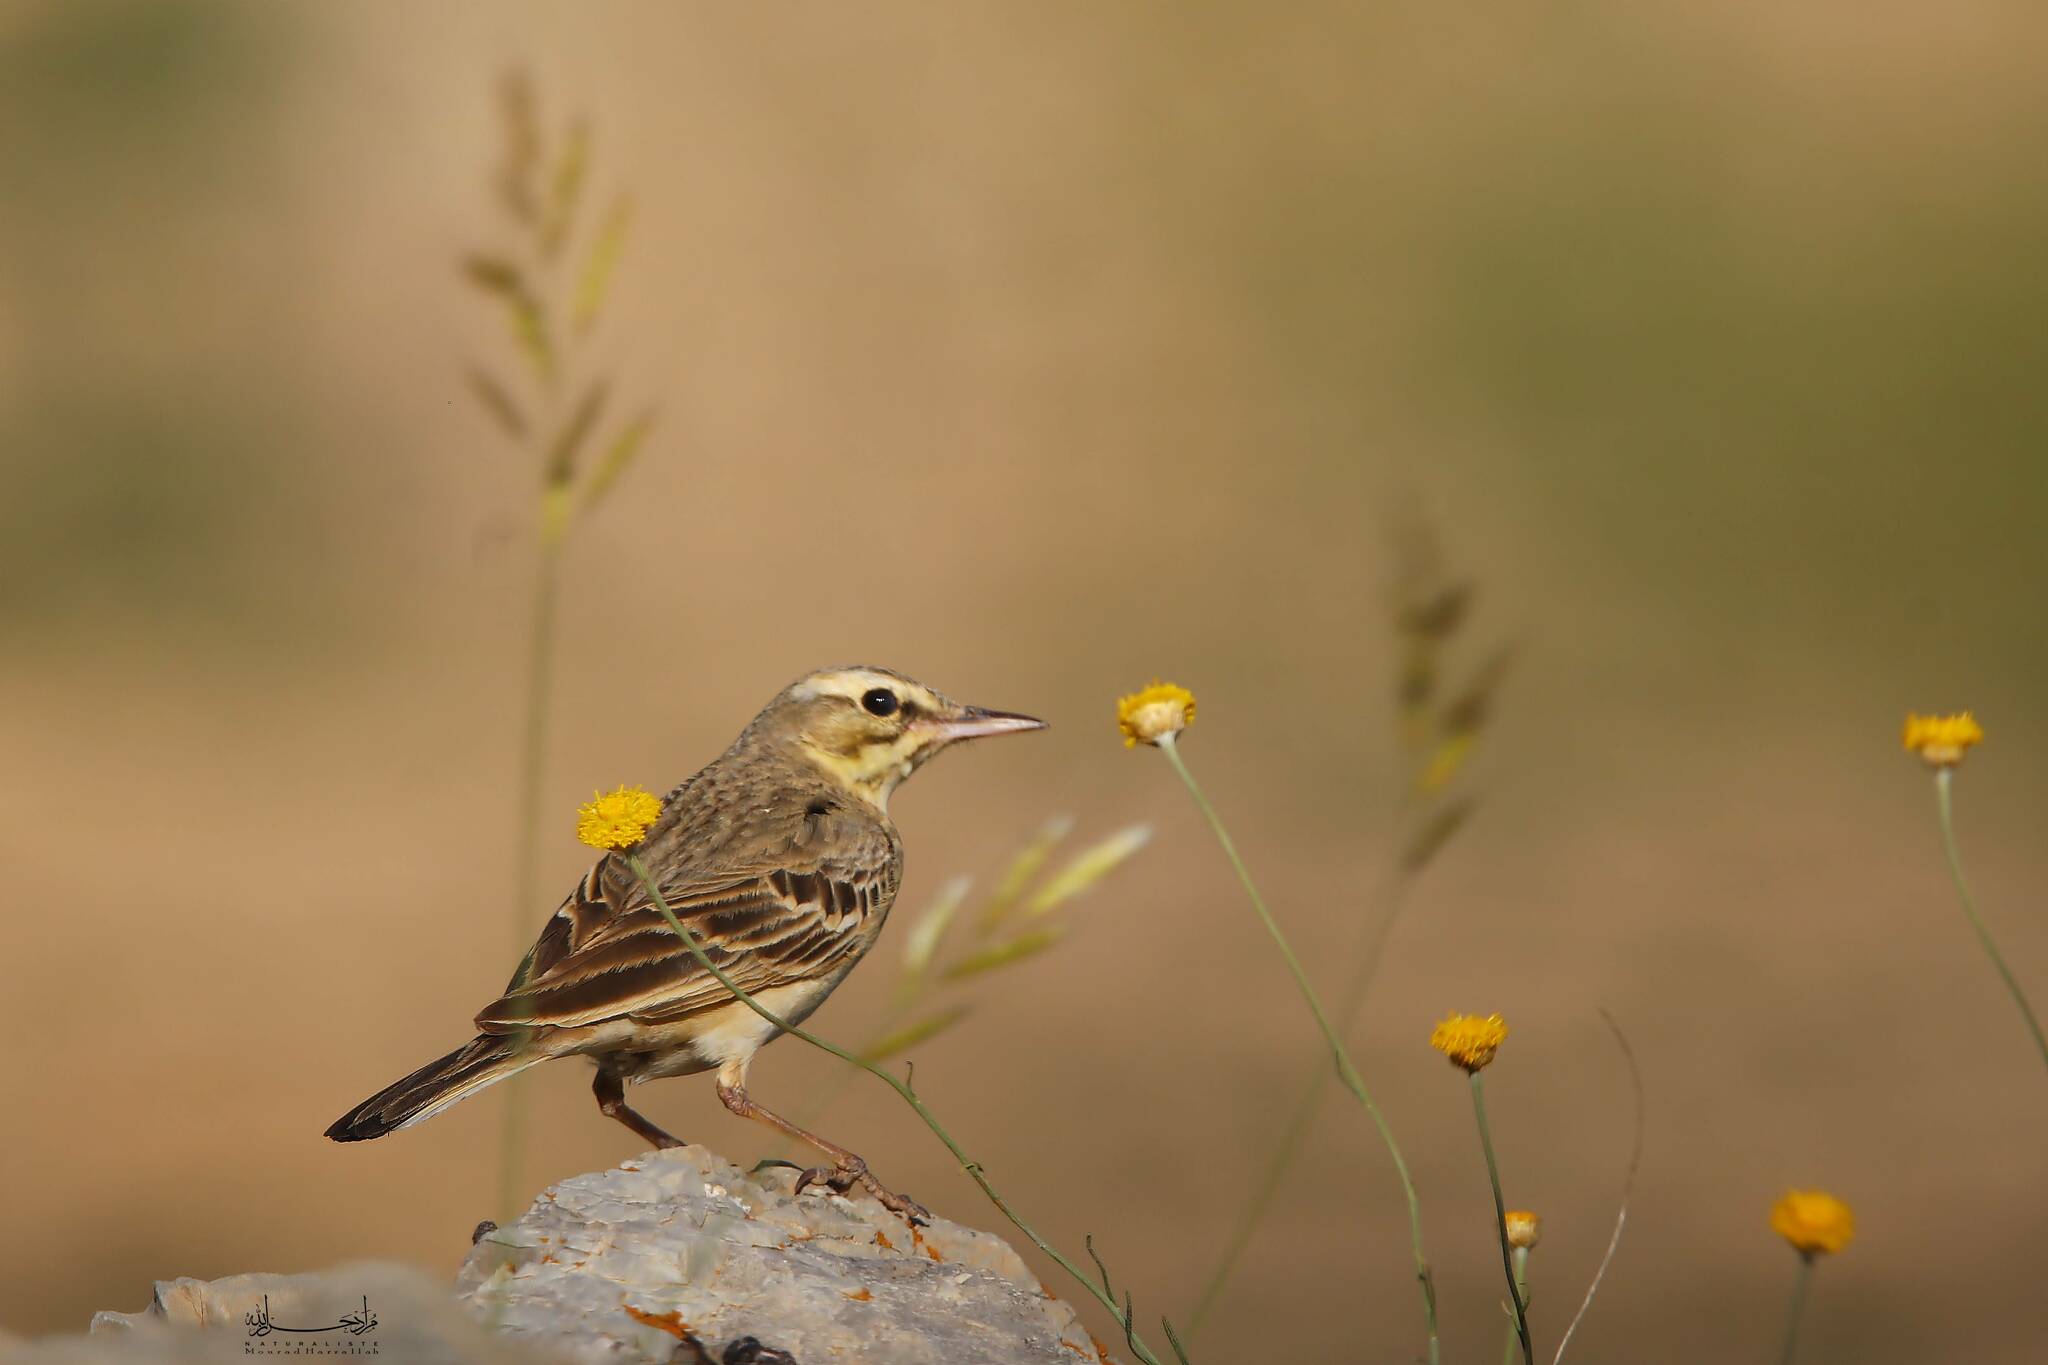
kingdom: Animalia
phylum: Chordata
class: Aves
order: Passeriformes
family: Motacillidae
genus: Anthus
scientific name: Anthus campestris
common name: Tawny pipit
